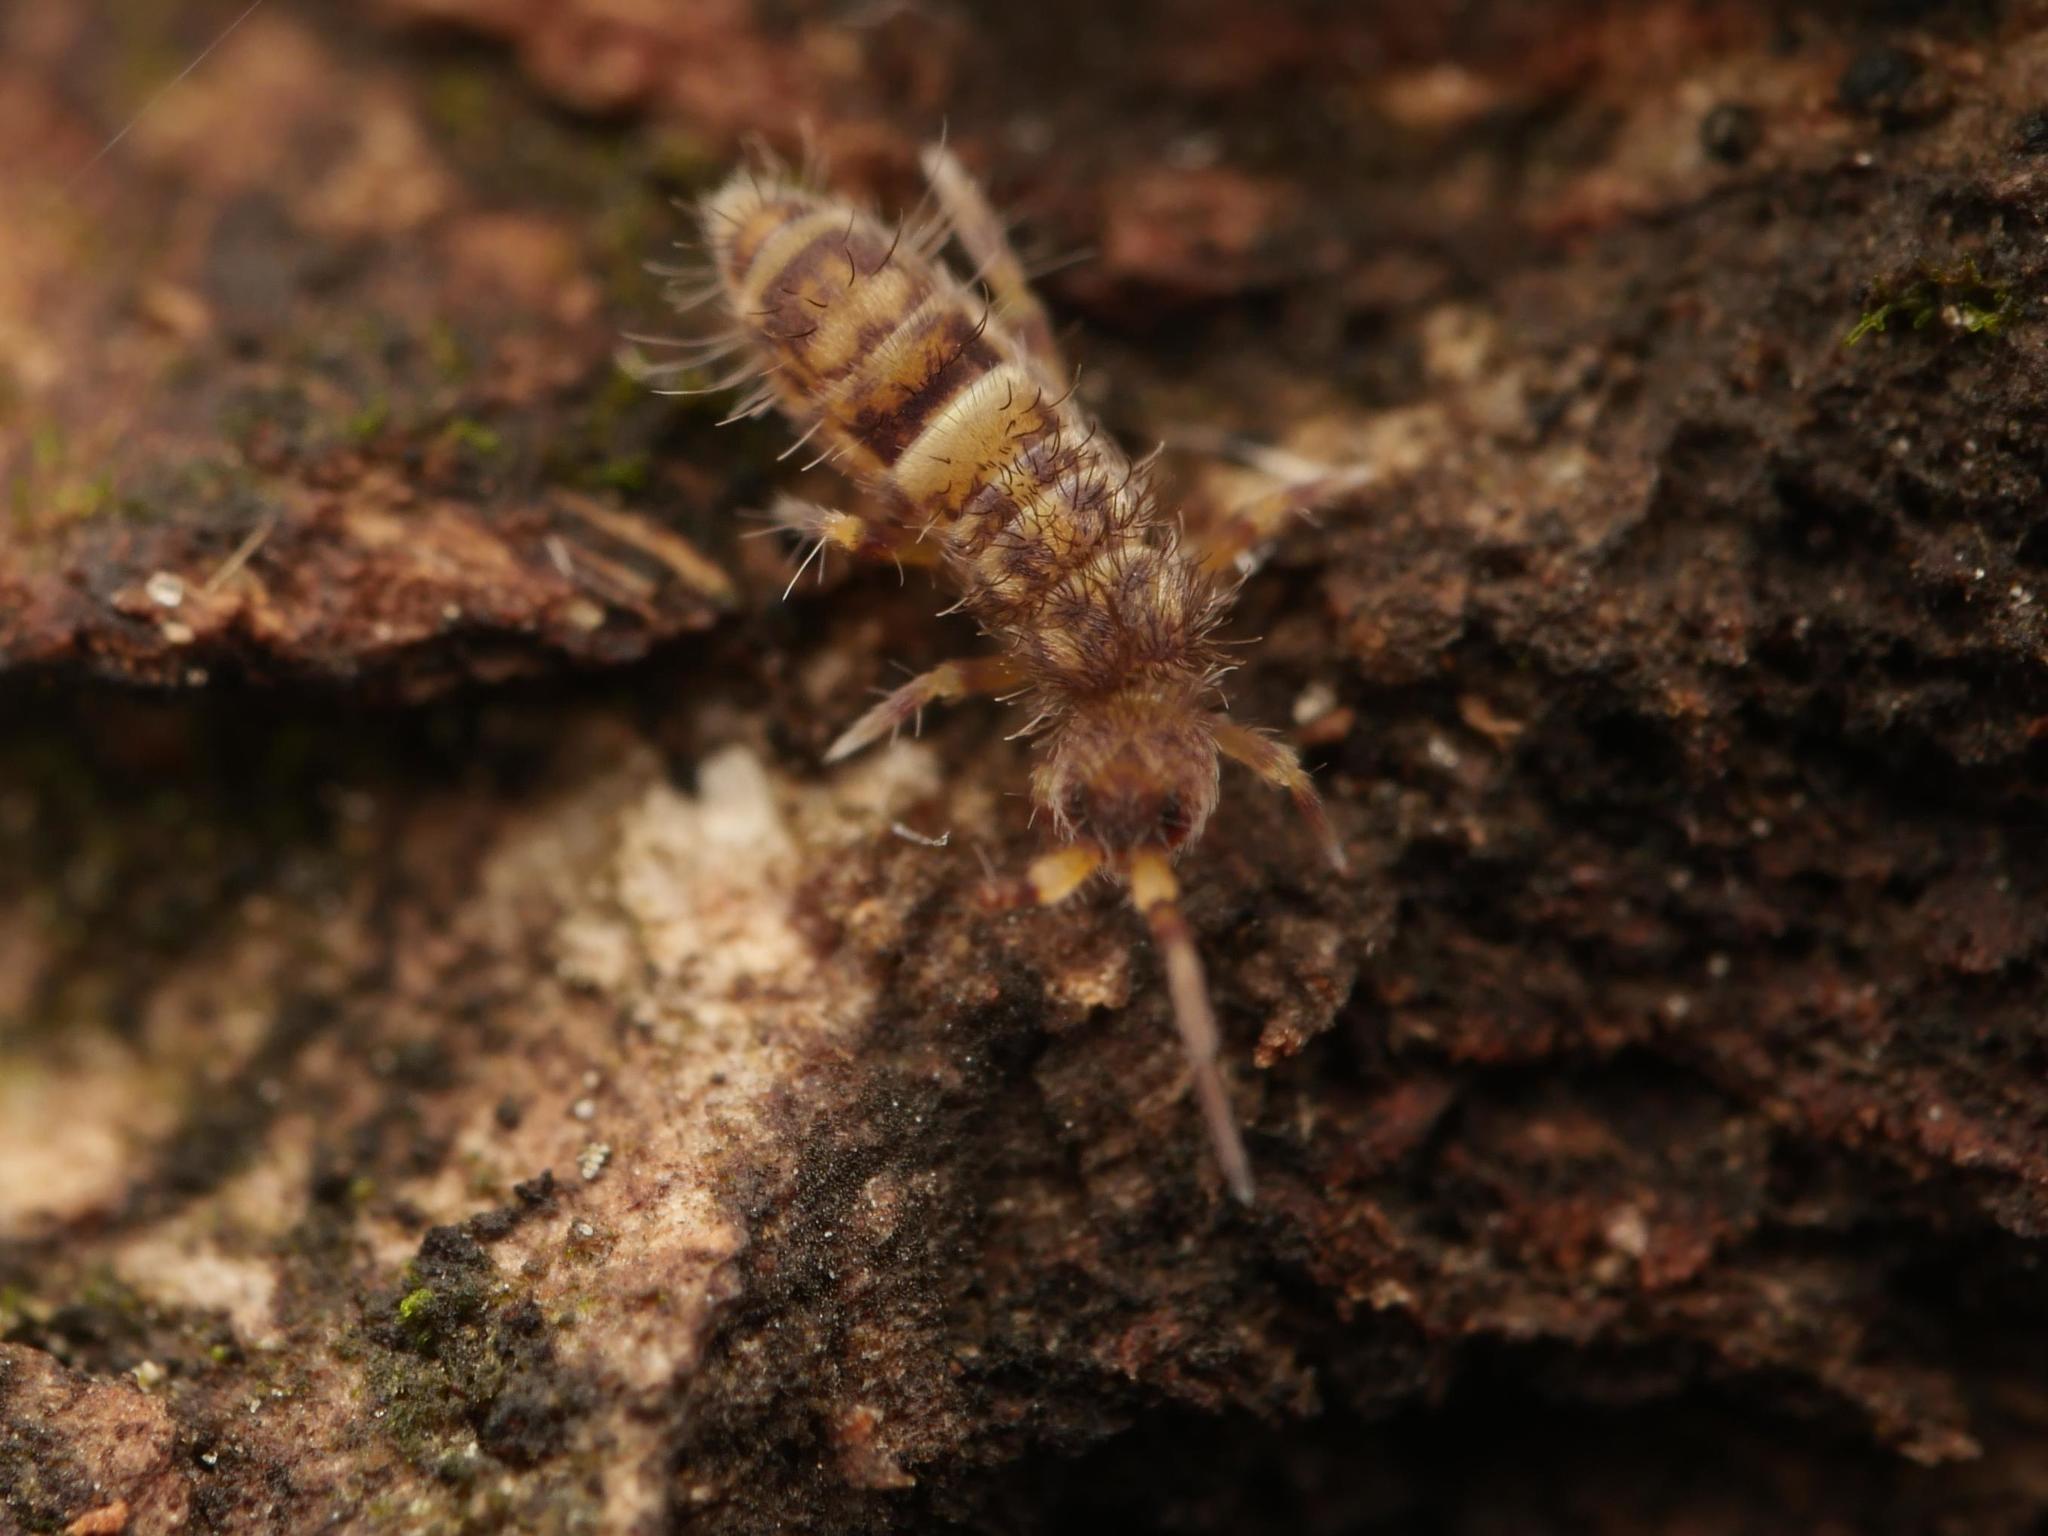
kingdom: Animalia
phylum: Arthropoda
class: Collembola
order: Entomobryomorpha
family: Orchesellidae
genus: Orchesella
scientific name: Orchesella cincta
